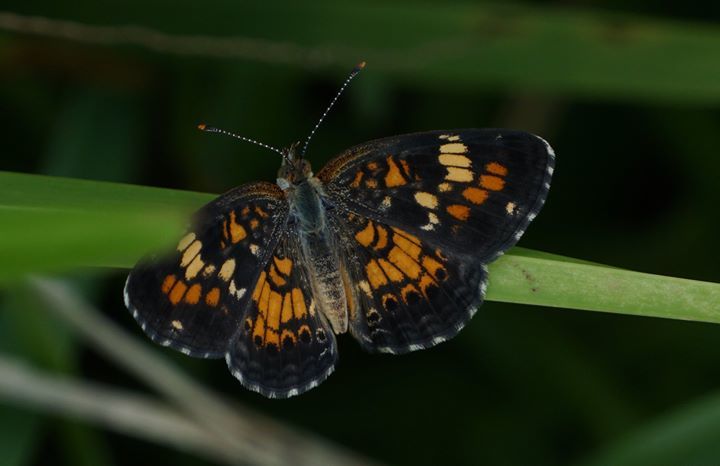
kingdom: Animalia
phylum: Arthropoda
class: Insecta
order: Lepidoptera
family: Nymphalidae
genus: Phyciodes
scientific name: Phyciodes phaon
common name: Phaon crescent
